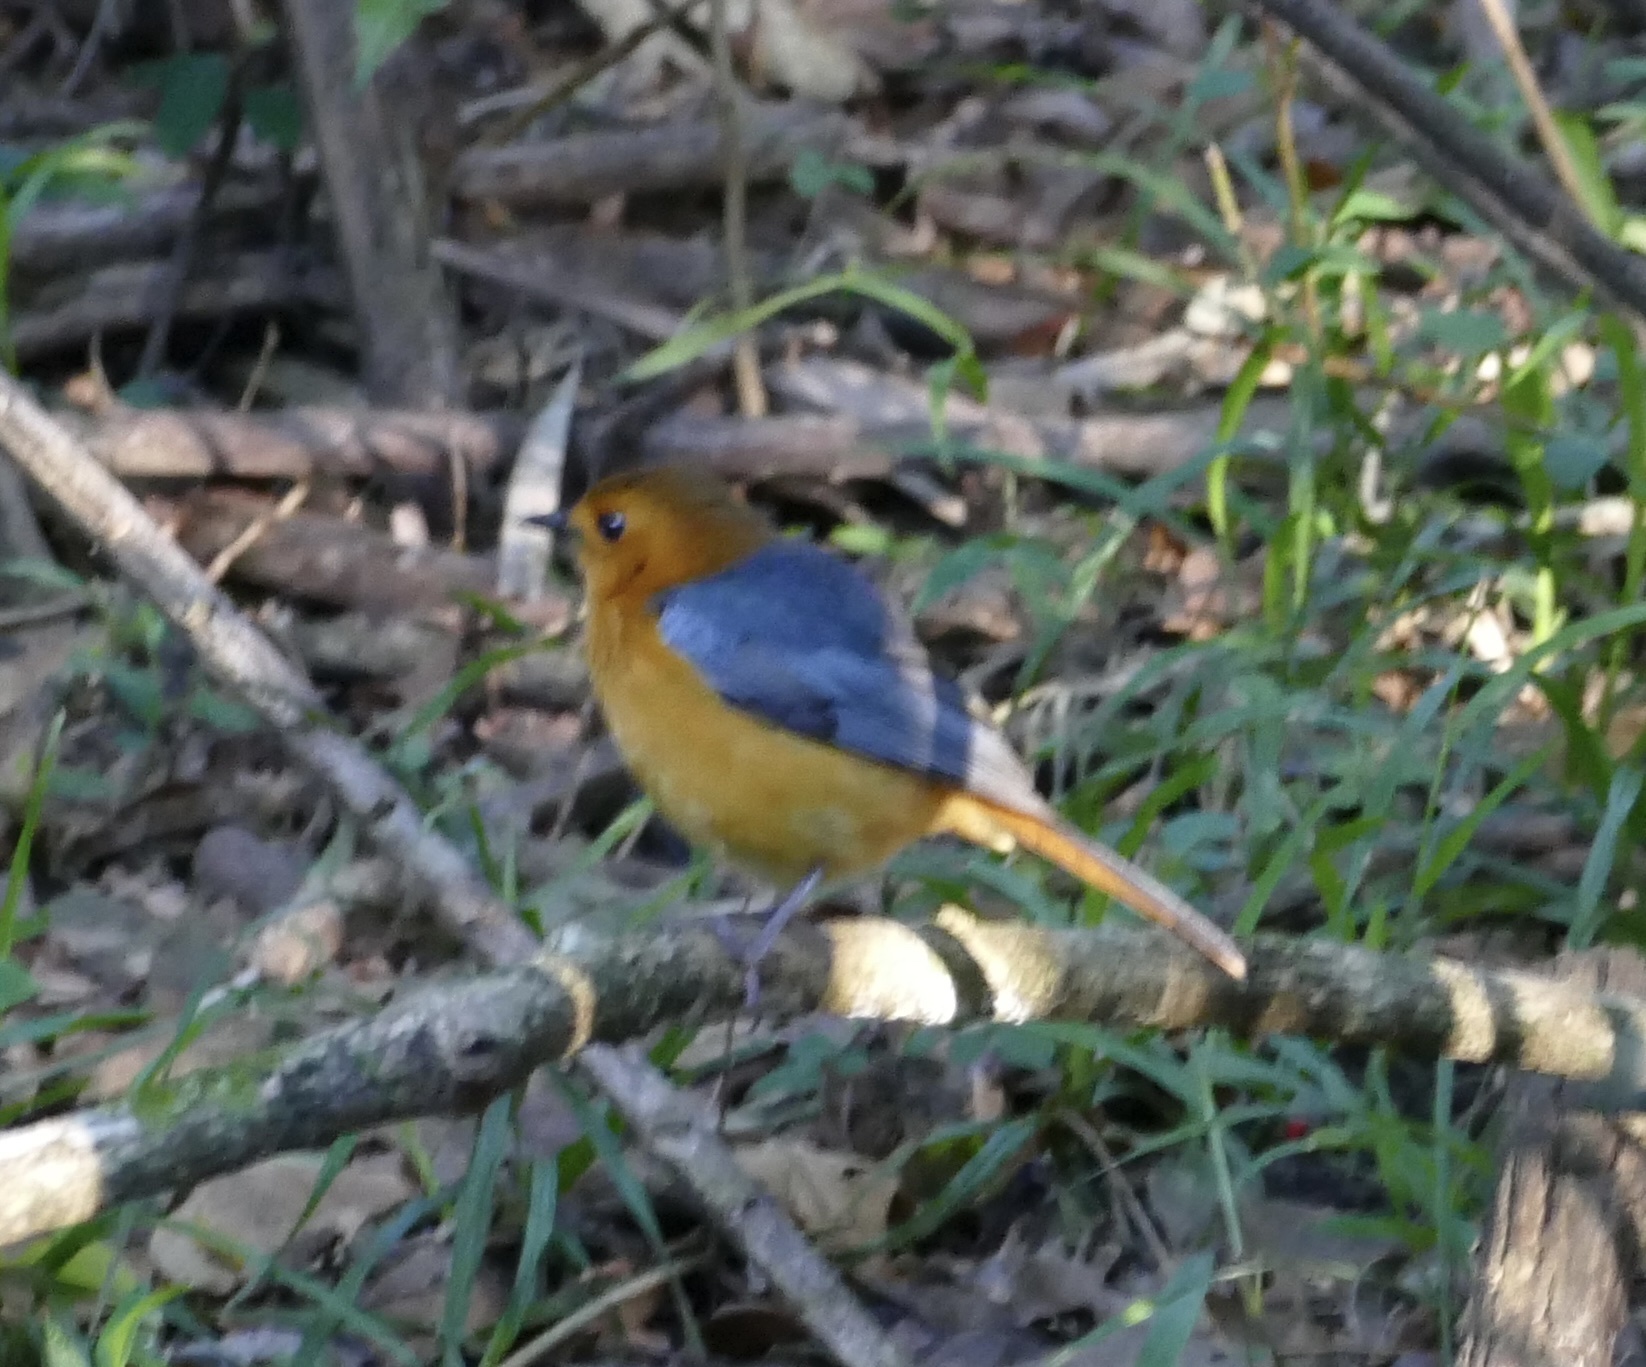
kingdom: Animalia
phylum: Chordata
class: Aves
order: Passeriformes
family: Muscicapidae
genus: Cossypha
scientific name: Cossypha natalensis
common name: Red-capped robin-chat
